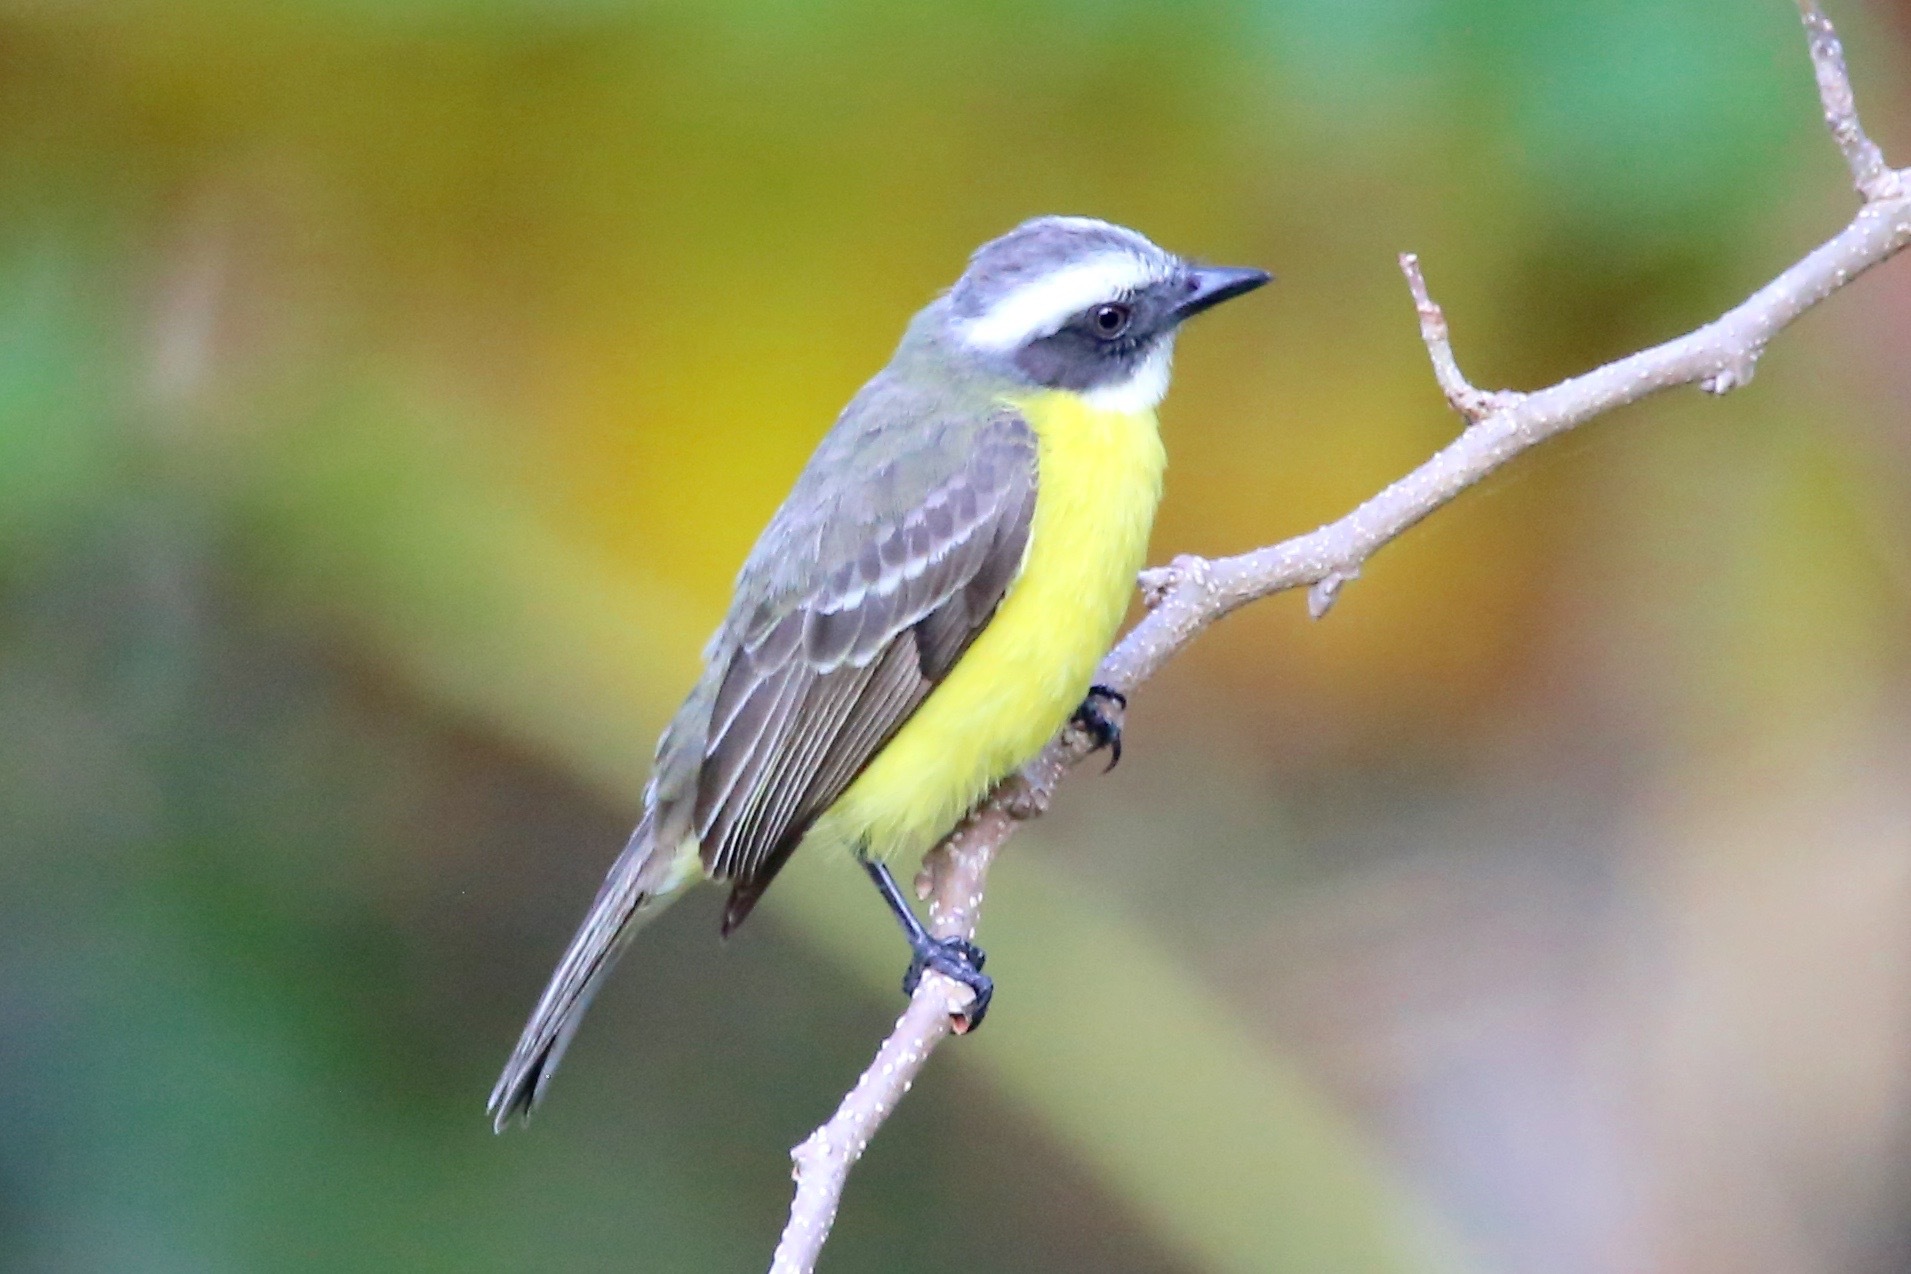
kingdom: Animalia
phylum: Chordata
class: Aves
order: Passeriformes
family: Tyrannidae
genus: Myiozetetes
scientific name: Myiozetetes similis
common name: Social flycatcher
